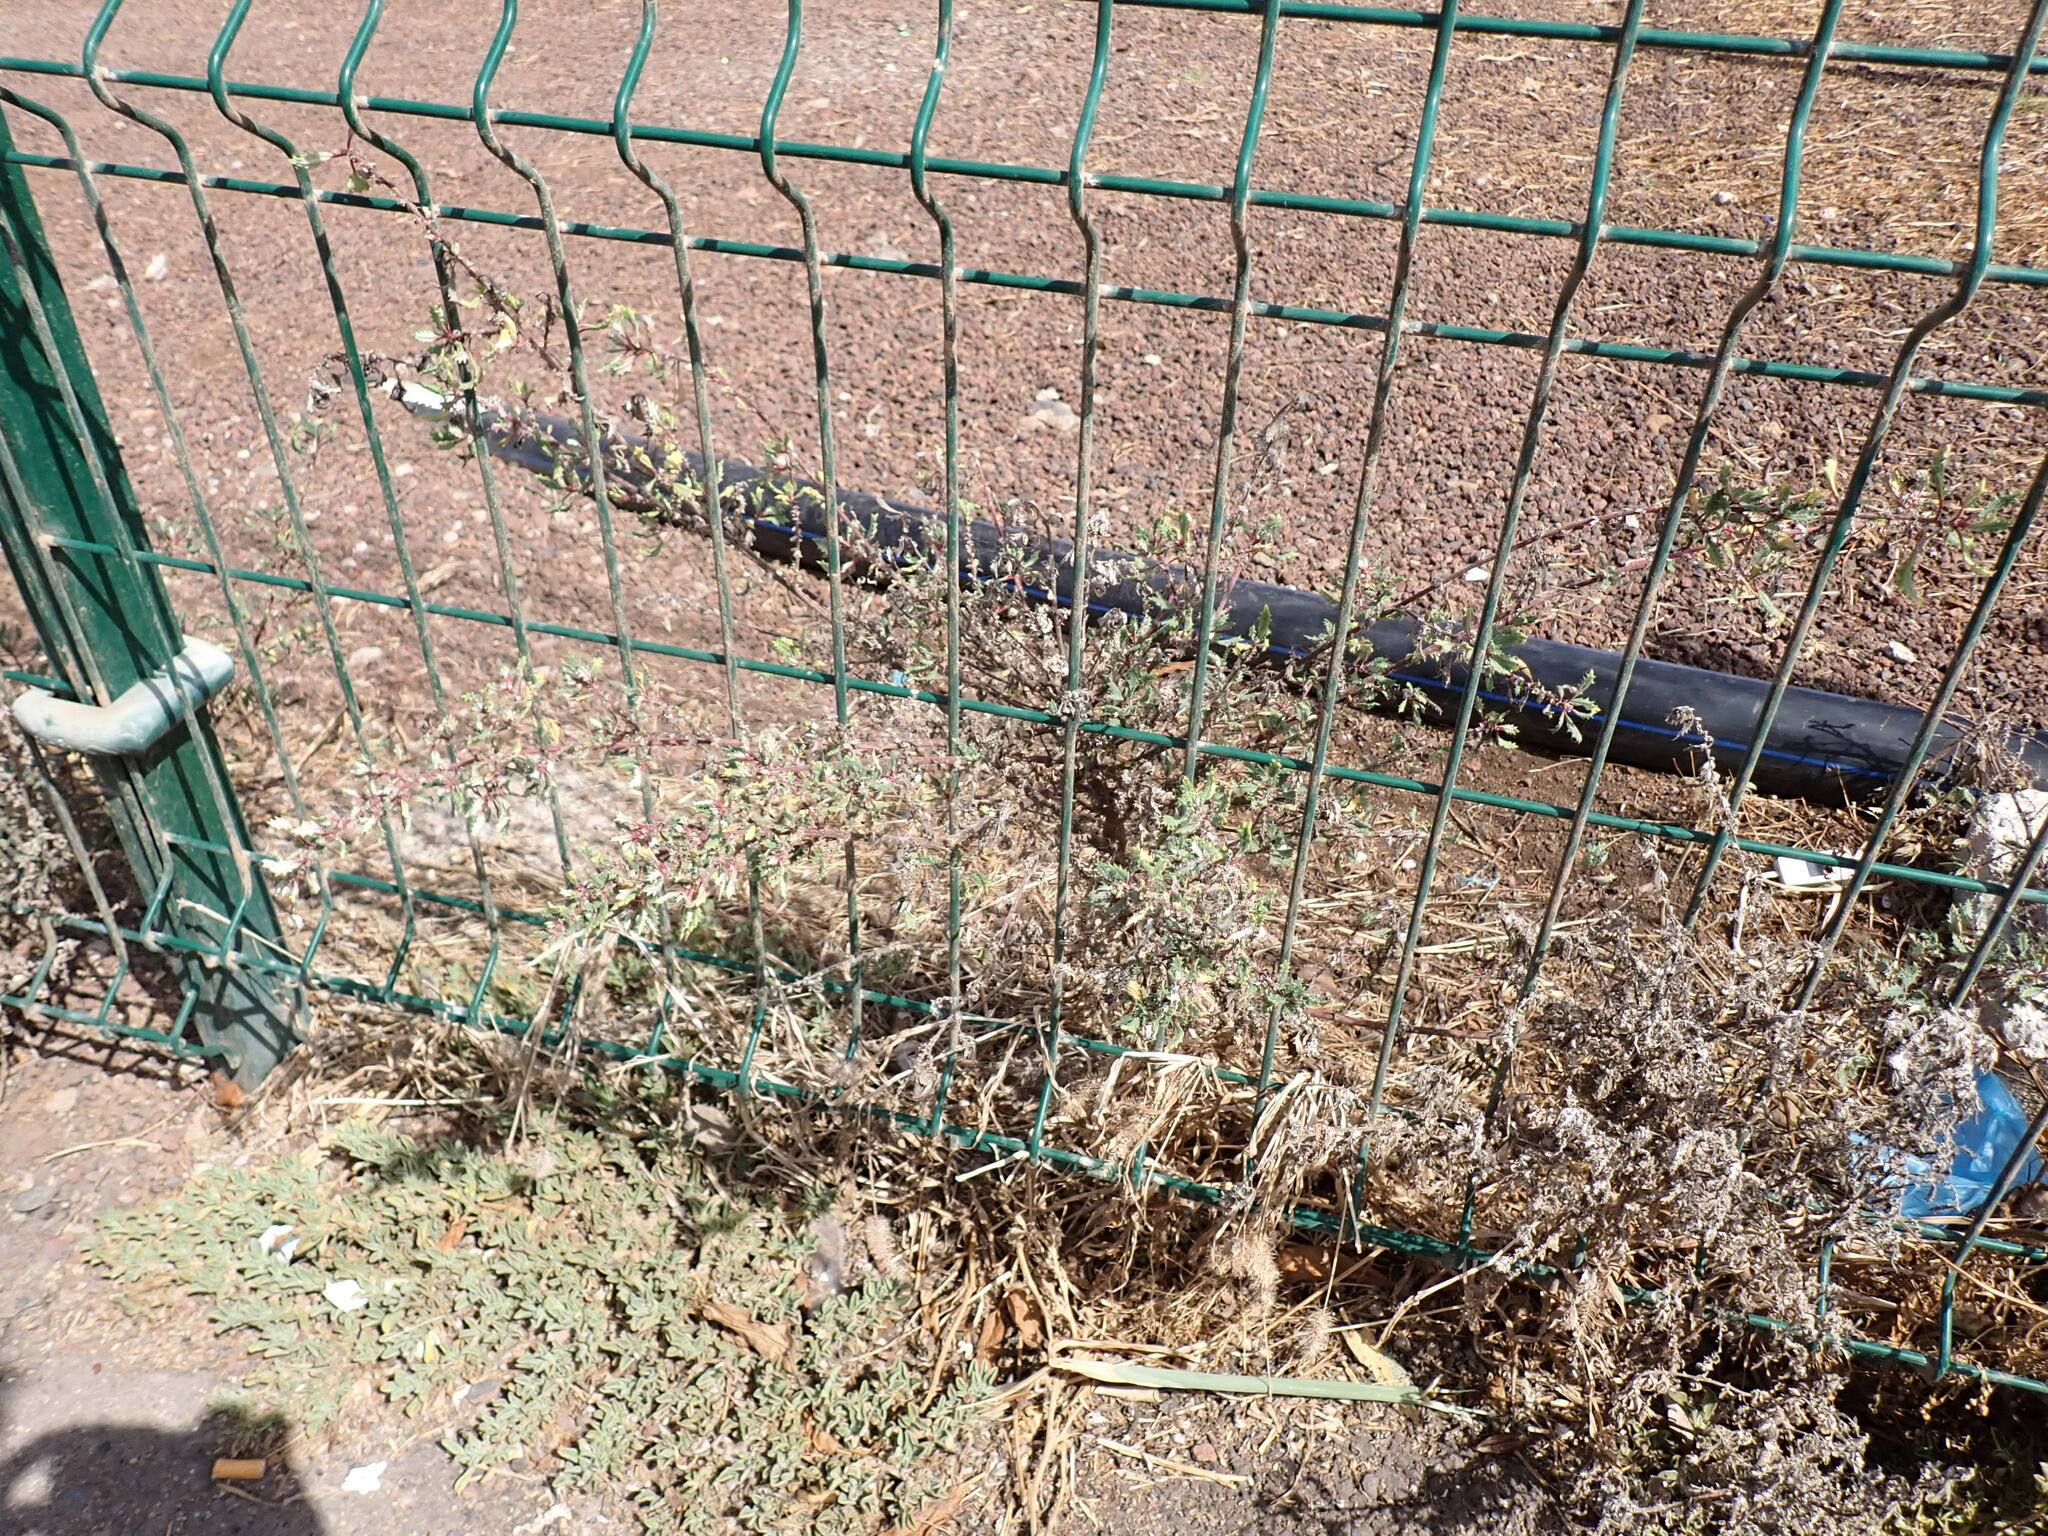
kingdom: Plantae
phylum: Tracheophyta
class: Magnoliopsida
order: Rosales
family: Urticaceae
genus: Forsskaolea
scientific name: Forsskaolea angustifolia
